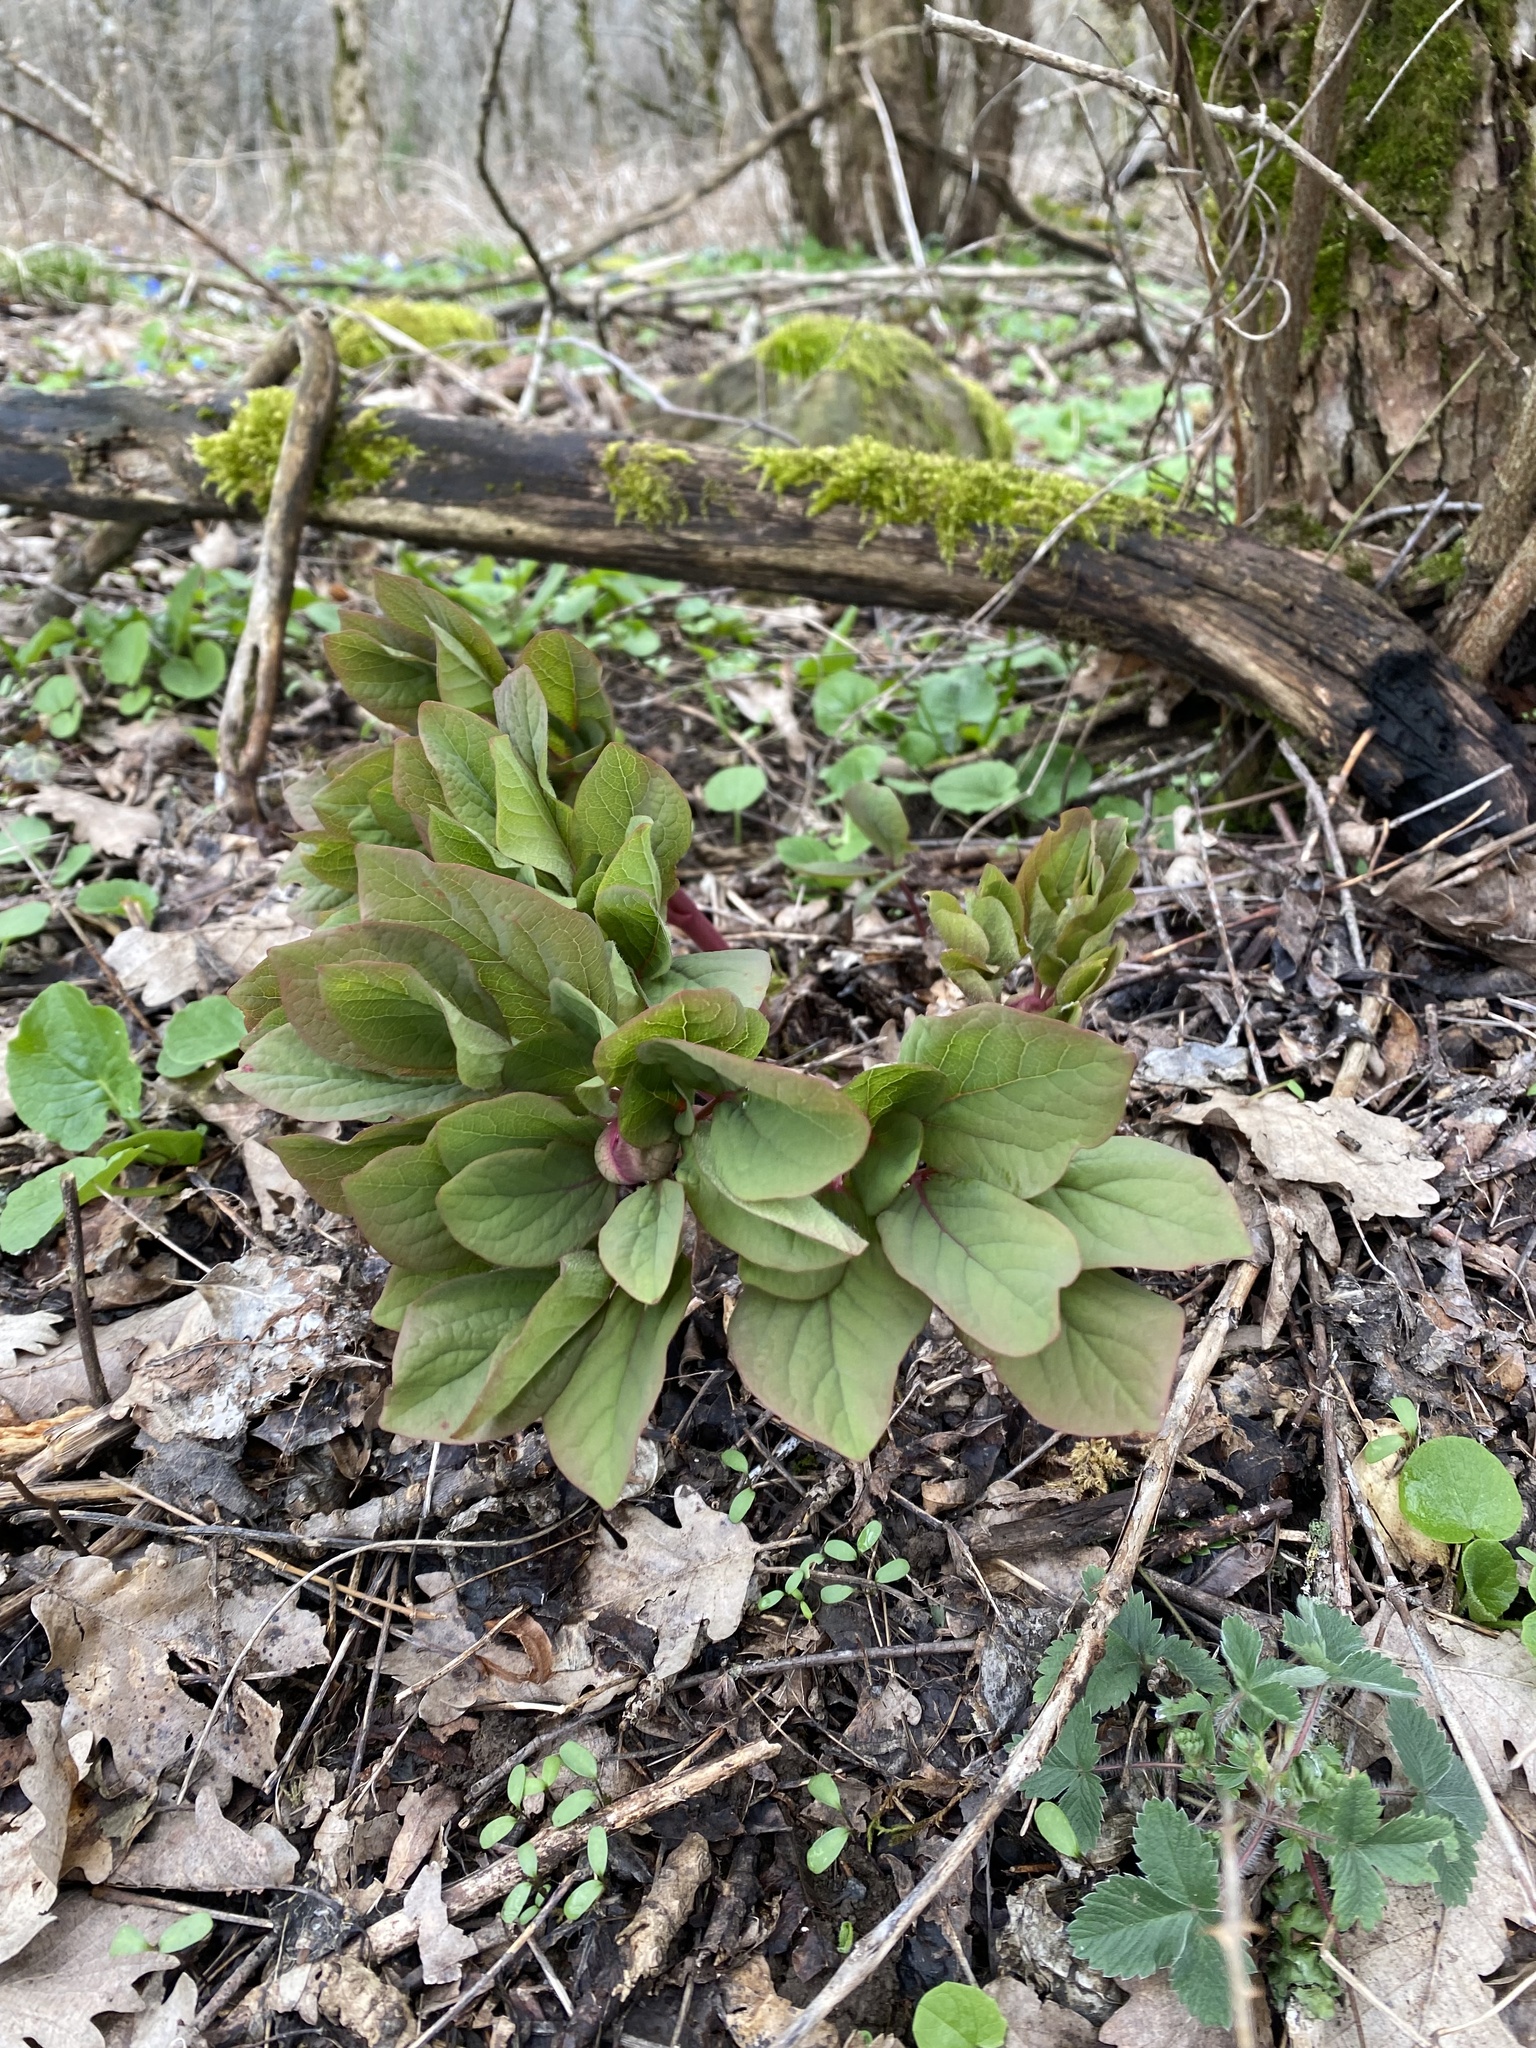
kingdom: Plantae
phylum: Tracheophyta
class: Magnoliopsida
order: Saxifragales
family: Paeoniaceae
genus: Paeonia
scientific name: Paeonia caucasica
